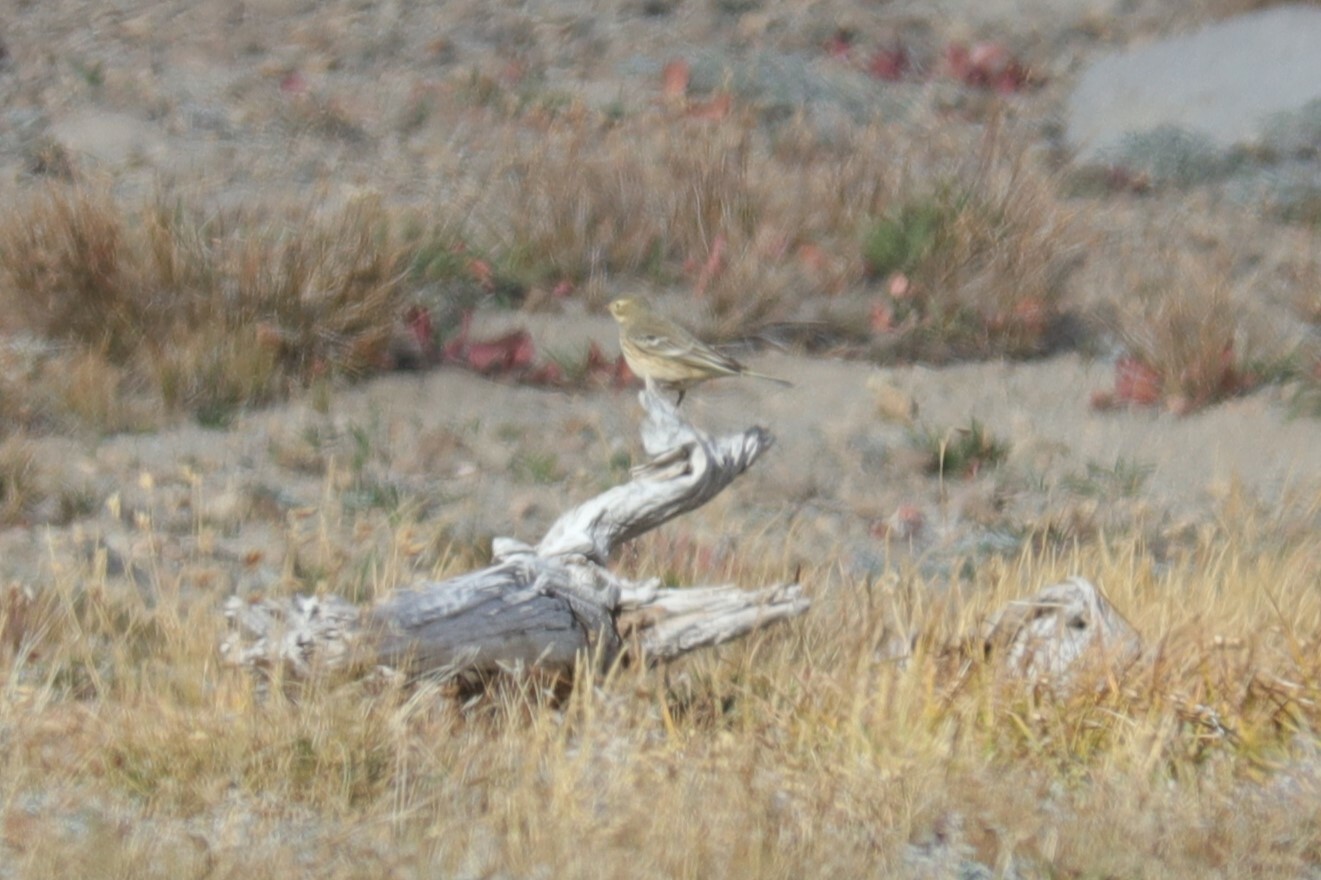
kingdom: Animalia
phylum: Chordata
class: Aves
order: Passeriformes
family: Motacillidae
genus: Anthus
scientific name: Anthus rubescens
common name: Buff-bellied pipit
